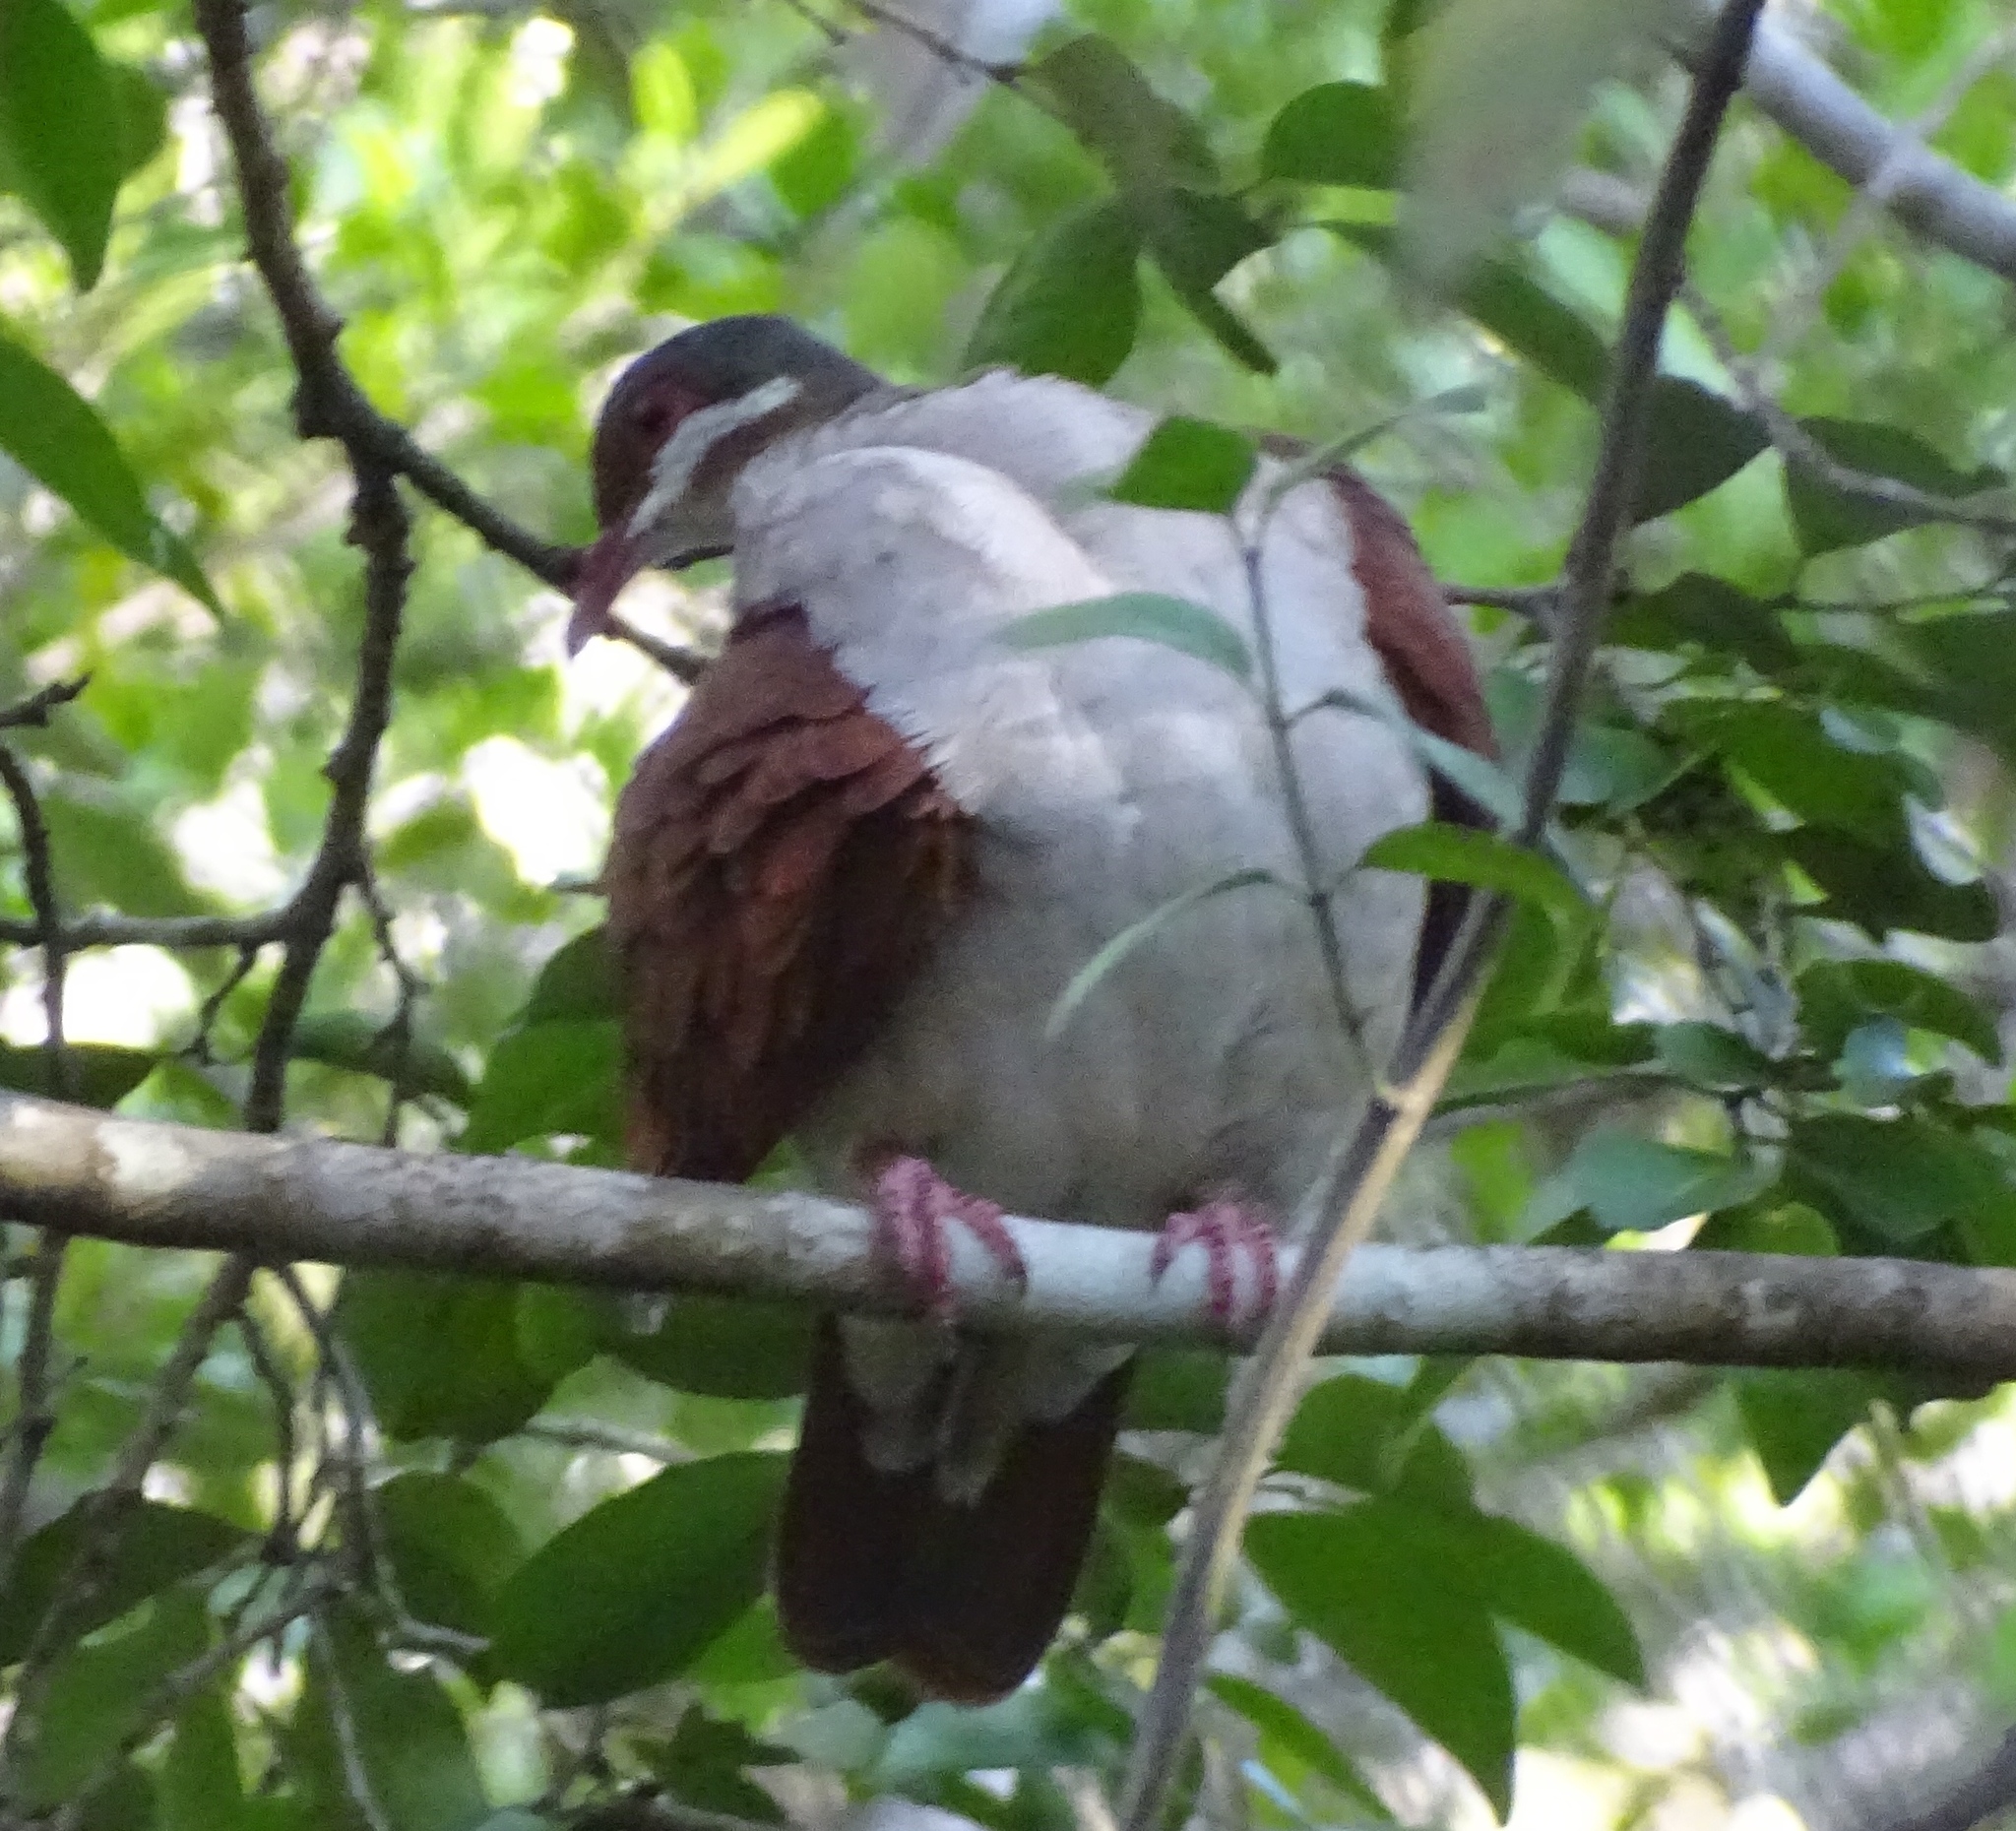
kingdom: Animalia
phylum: Chordata
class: Aves
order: Columbiformes
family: Columbidae
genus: Geotrygon
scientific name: Geotrygon chrysia
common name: Key west quail-dove
